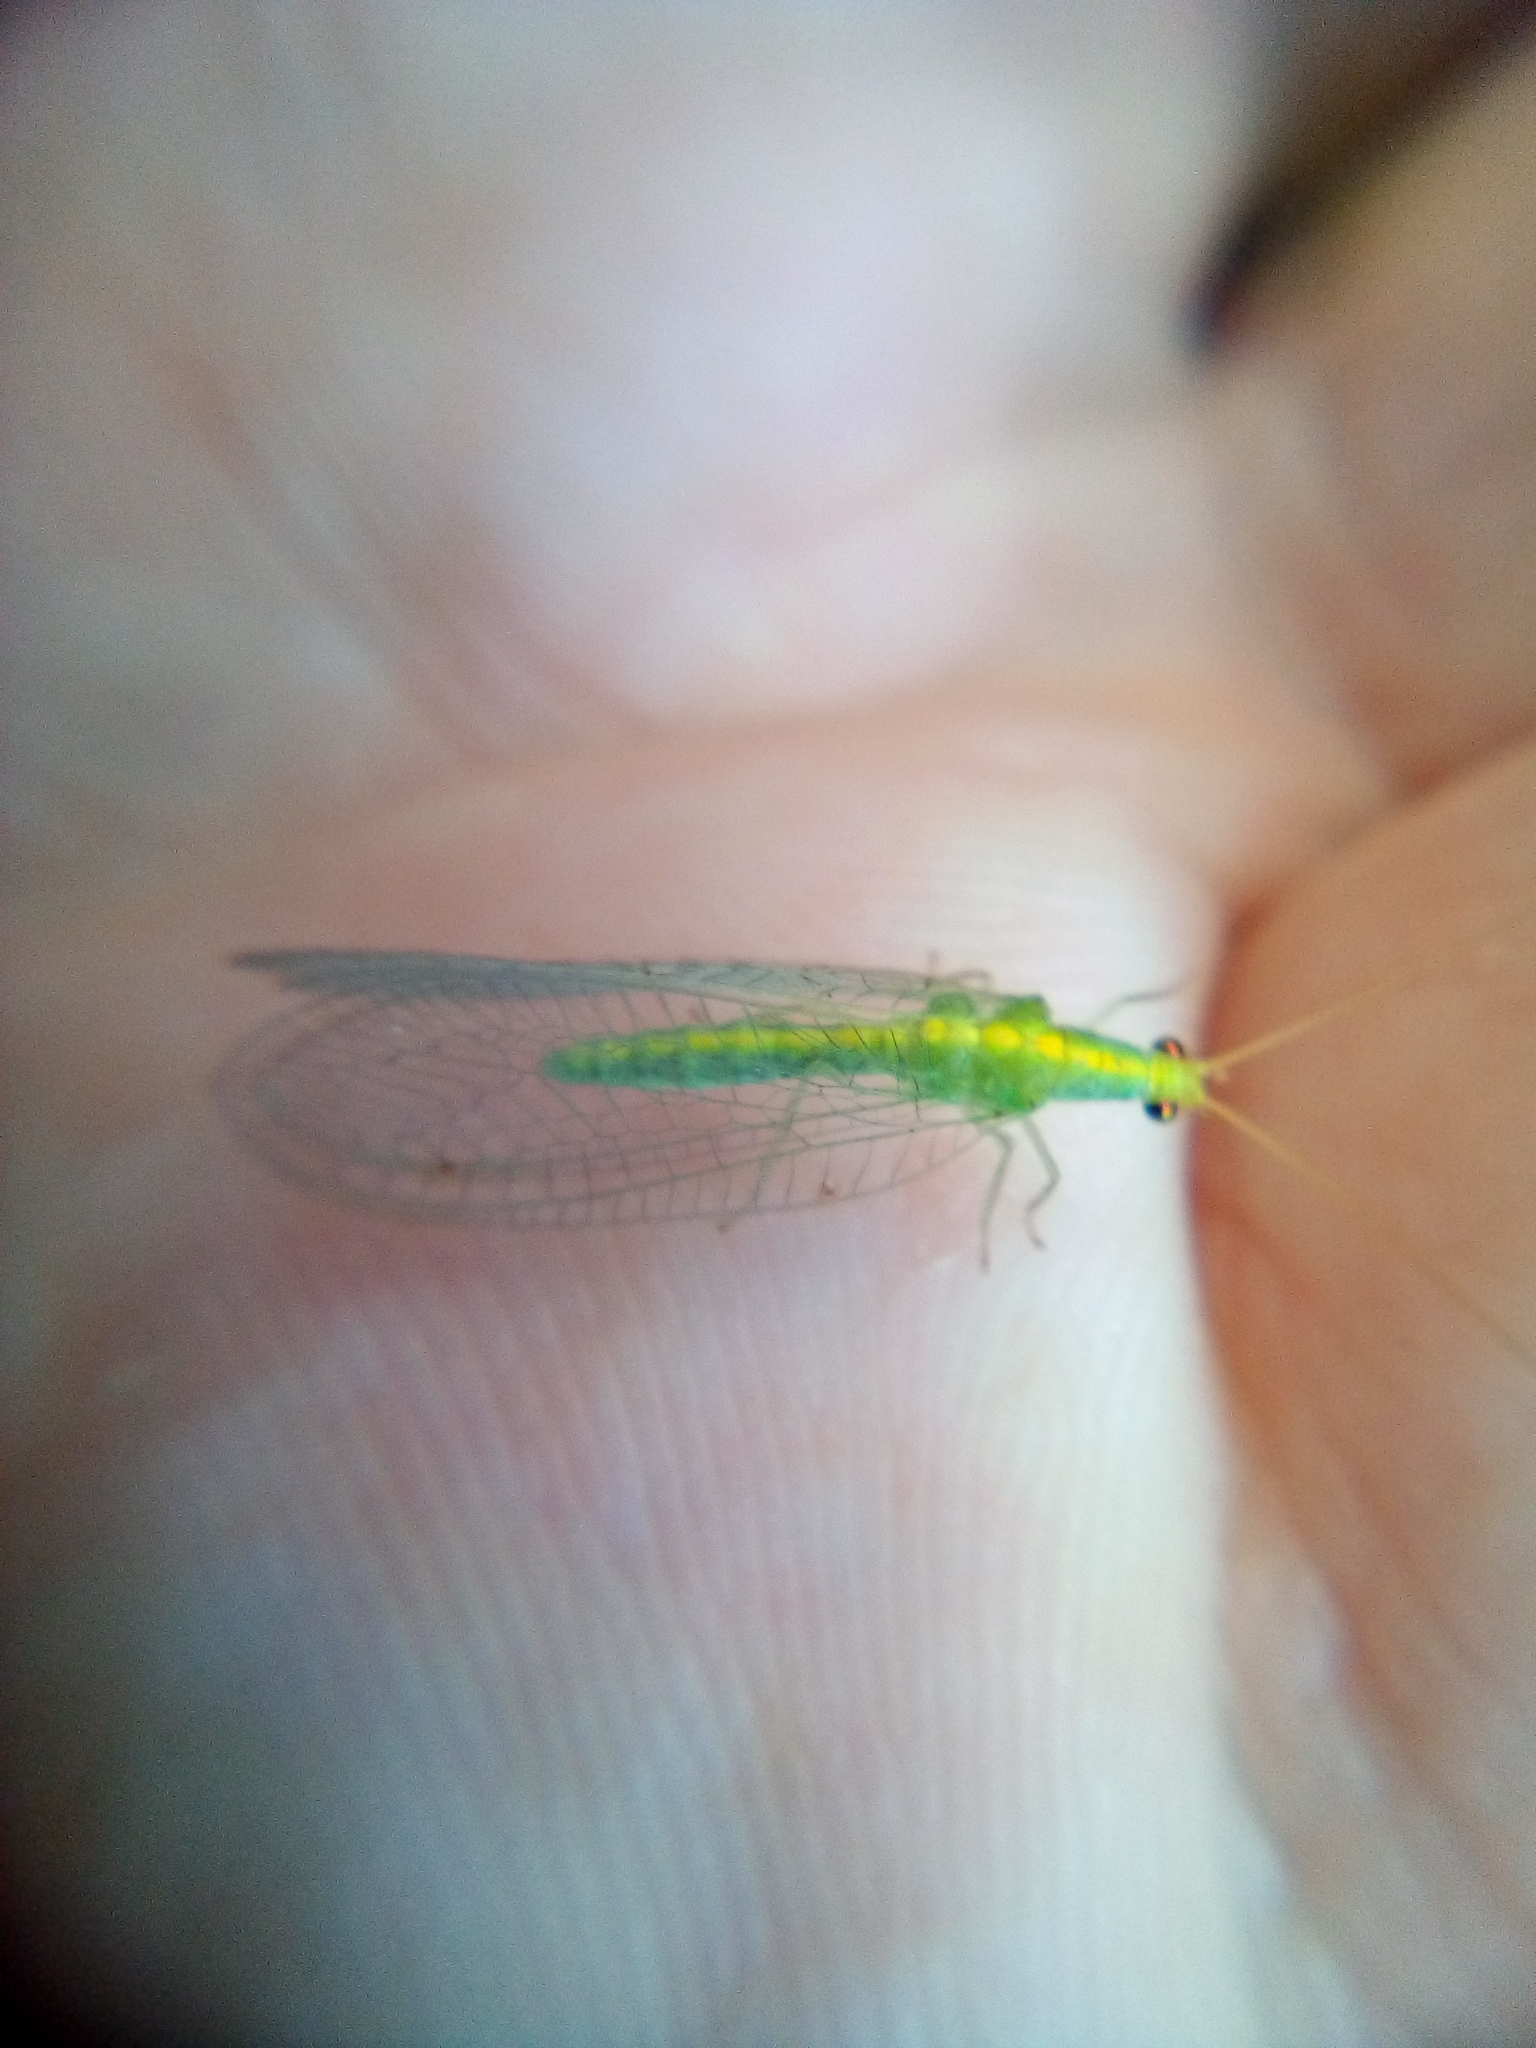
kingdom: Animalia
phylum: Arthropoda
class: Insecta
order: Neuroptera
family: Chrysopidae
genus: Mallada
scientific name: Mallada basalis
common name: Green lacewing
